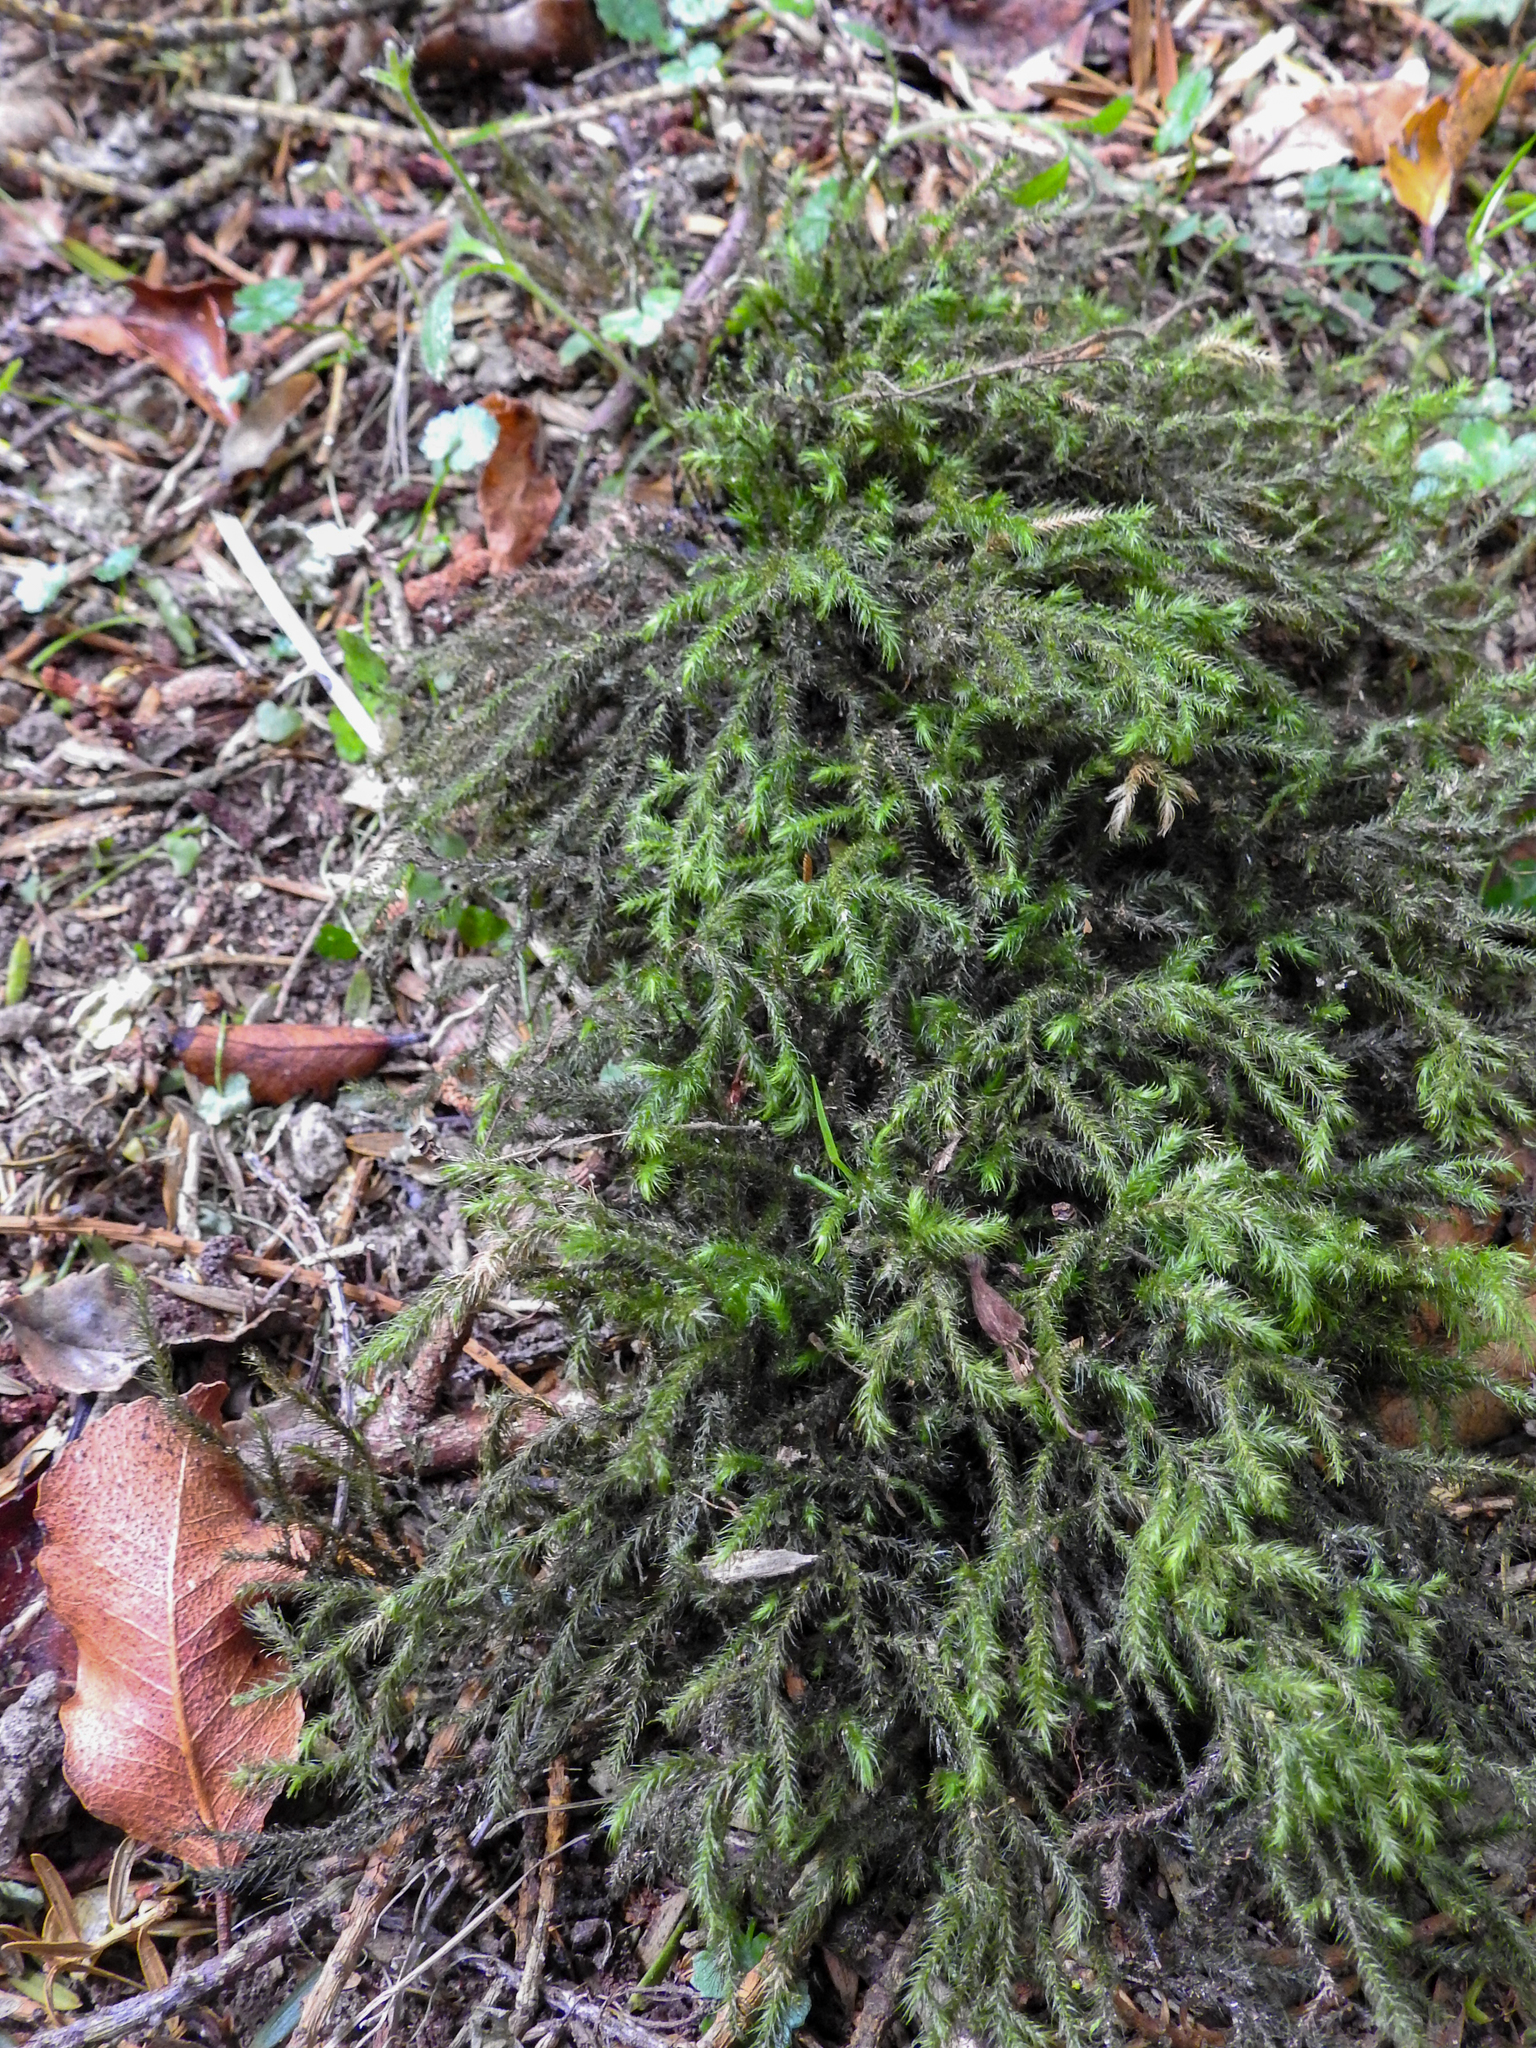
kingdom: Plantae
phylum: Bryophyta
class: Bryopsida
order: Hypnales
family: Neckeraceae
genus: Echinodiopsis
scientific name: Echinodiopsis hispida
